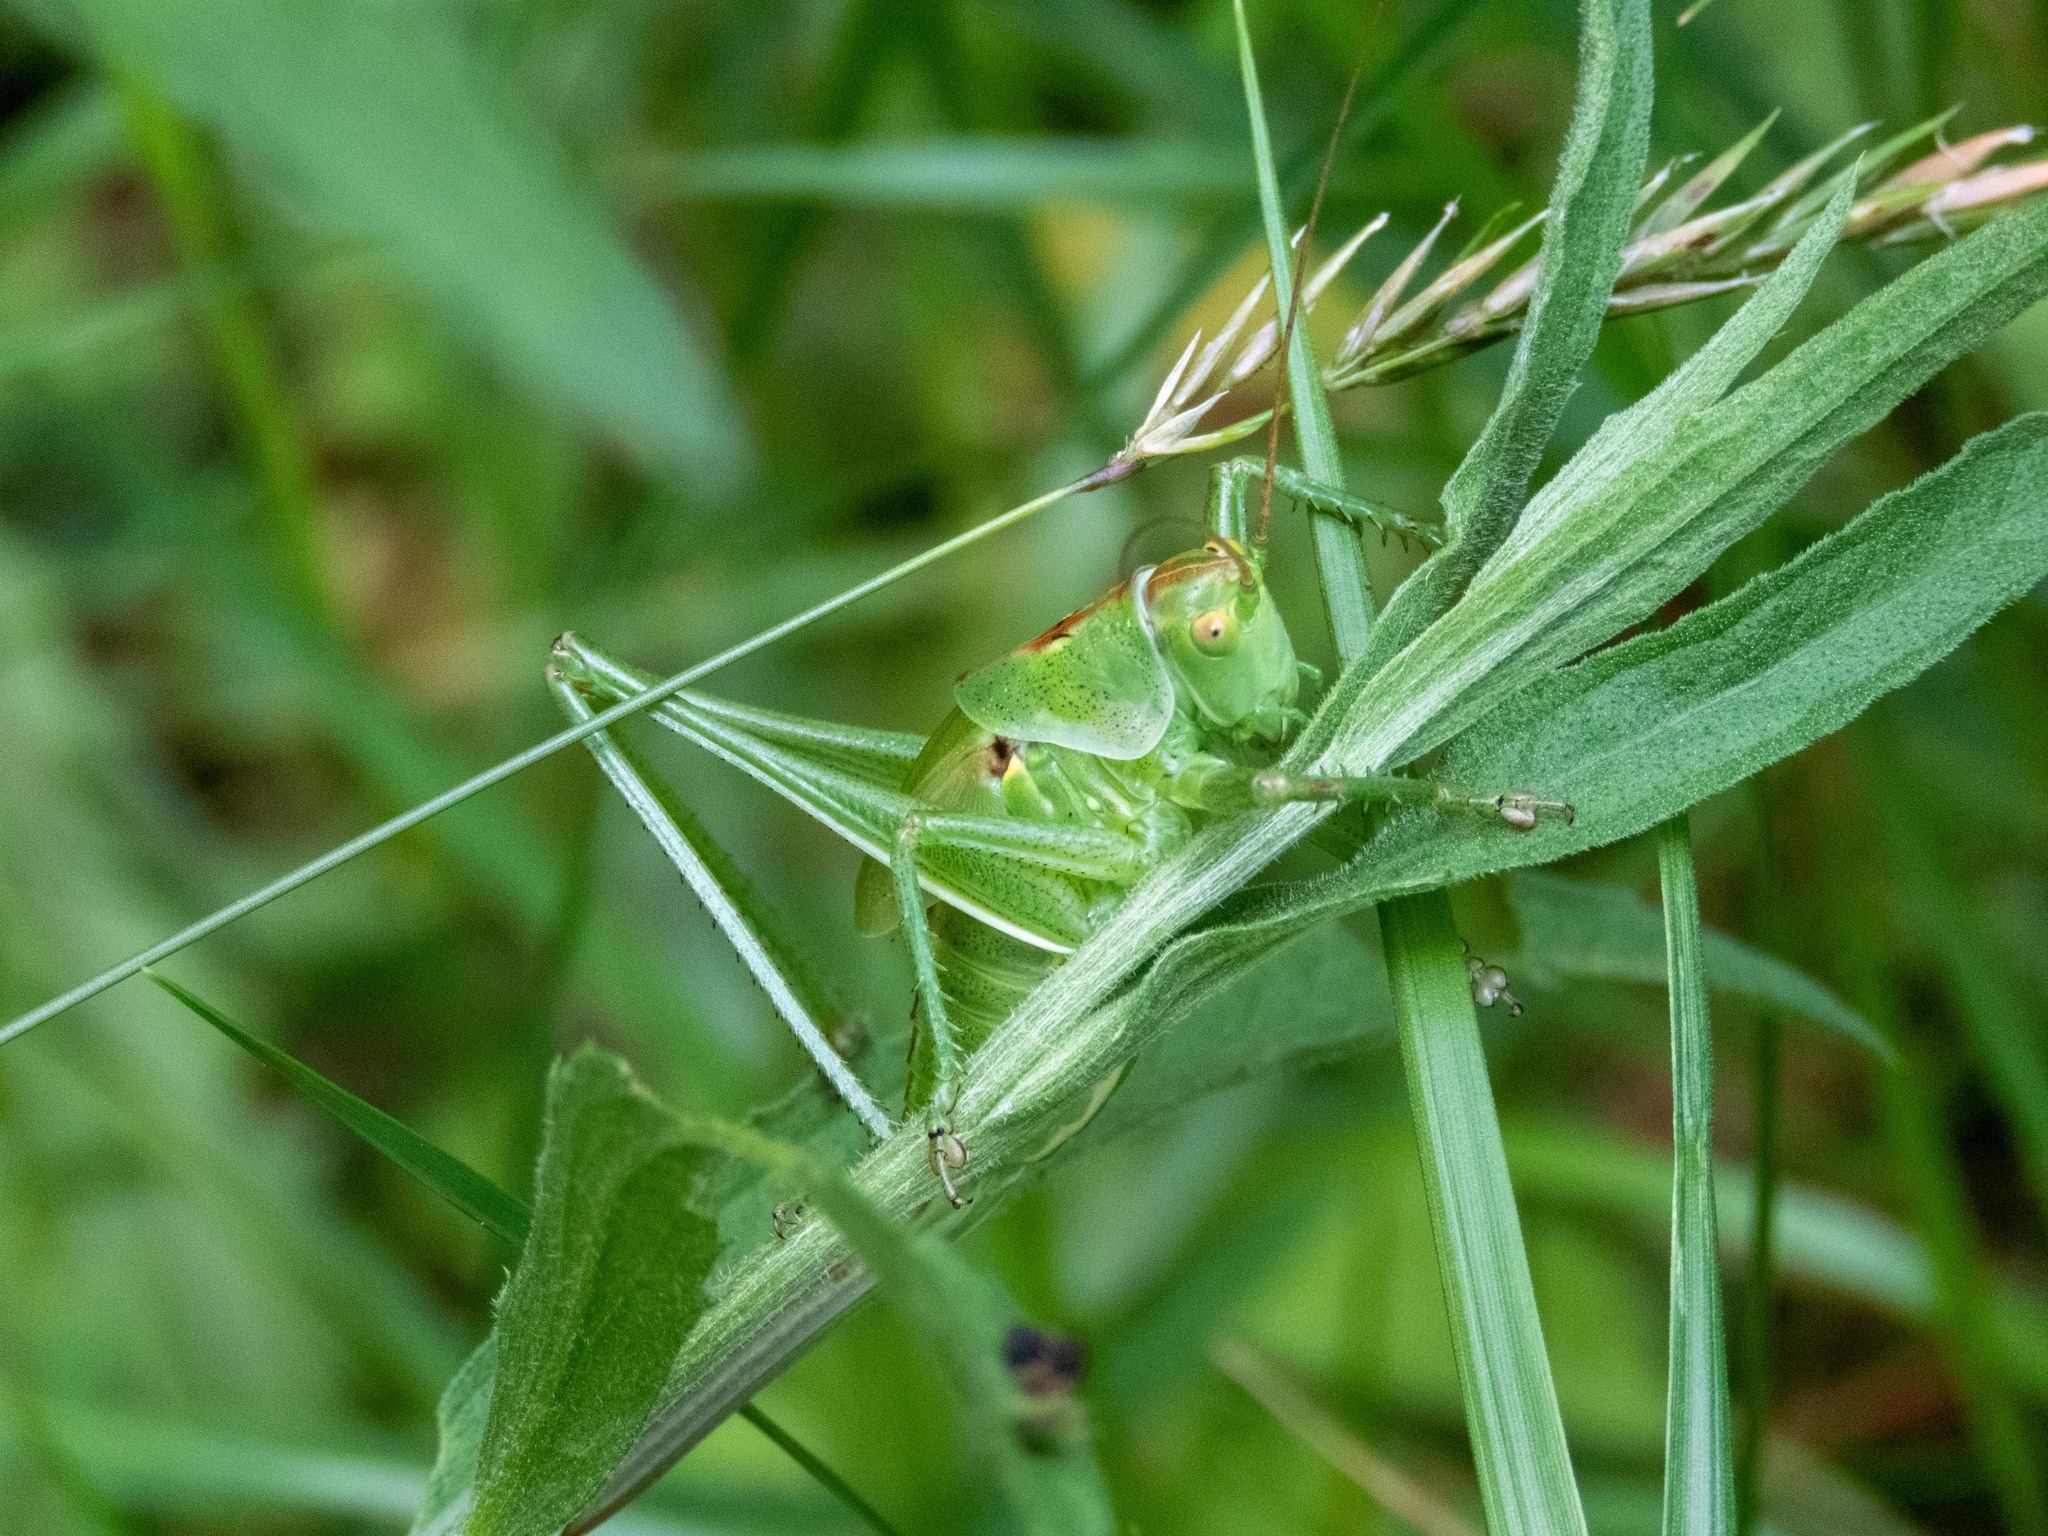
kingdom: Animalia
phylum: Arthropoda
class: Insecta
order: Orthoptera
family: Tettigoniidae
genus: Tettigonia
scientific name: Tettigonia viridissima
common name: Great green bush-cricket
